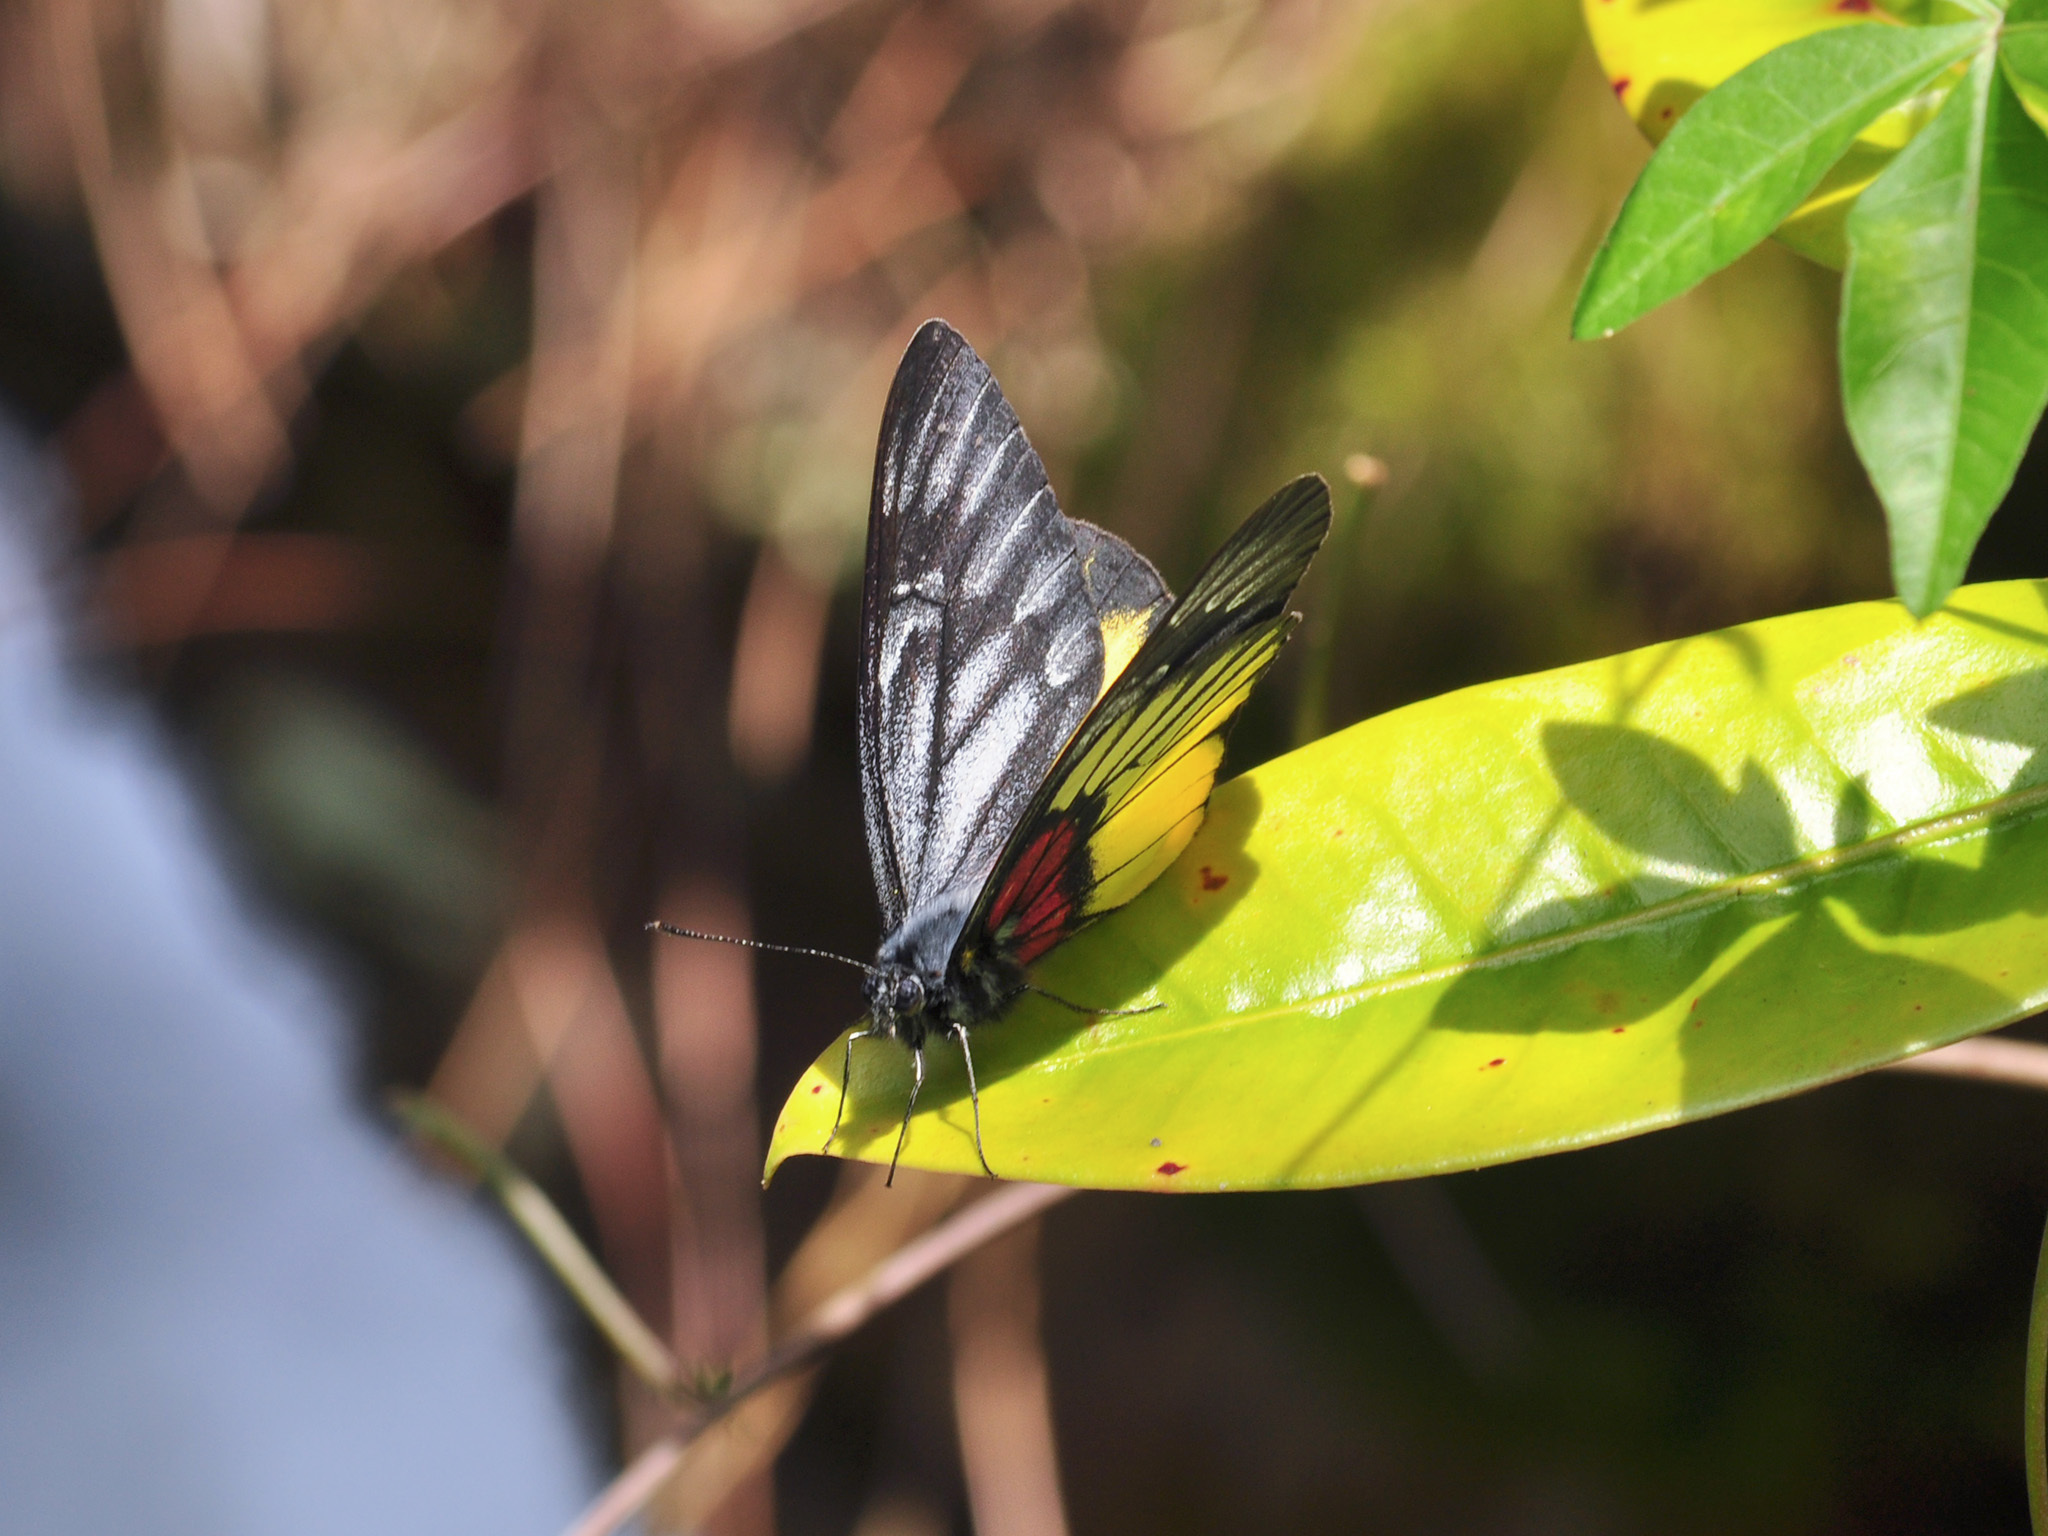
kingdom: Animalia
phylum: Arthropoda
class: Insecta
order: Lepidoptera
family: Pieridae
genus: Delias
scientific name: Delias ninus
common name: Malayan jezebel
